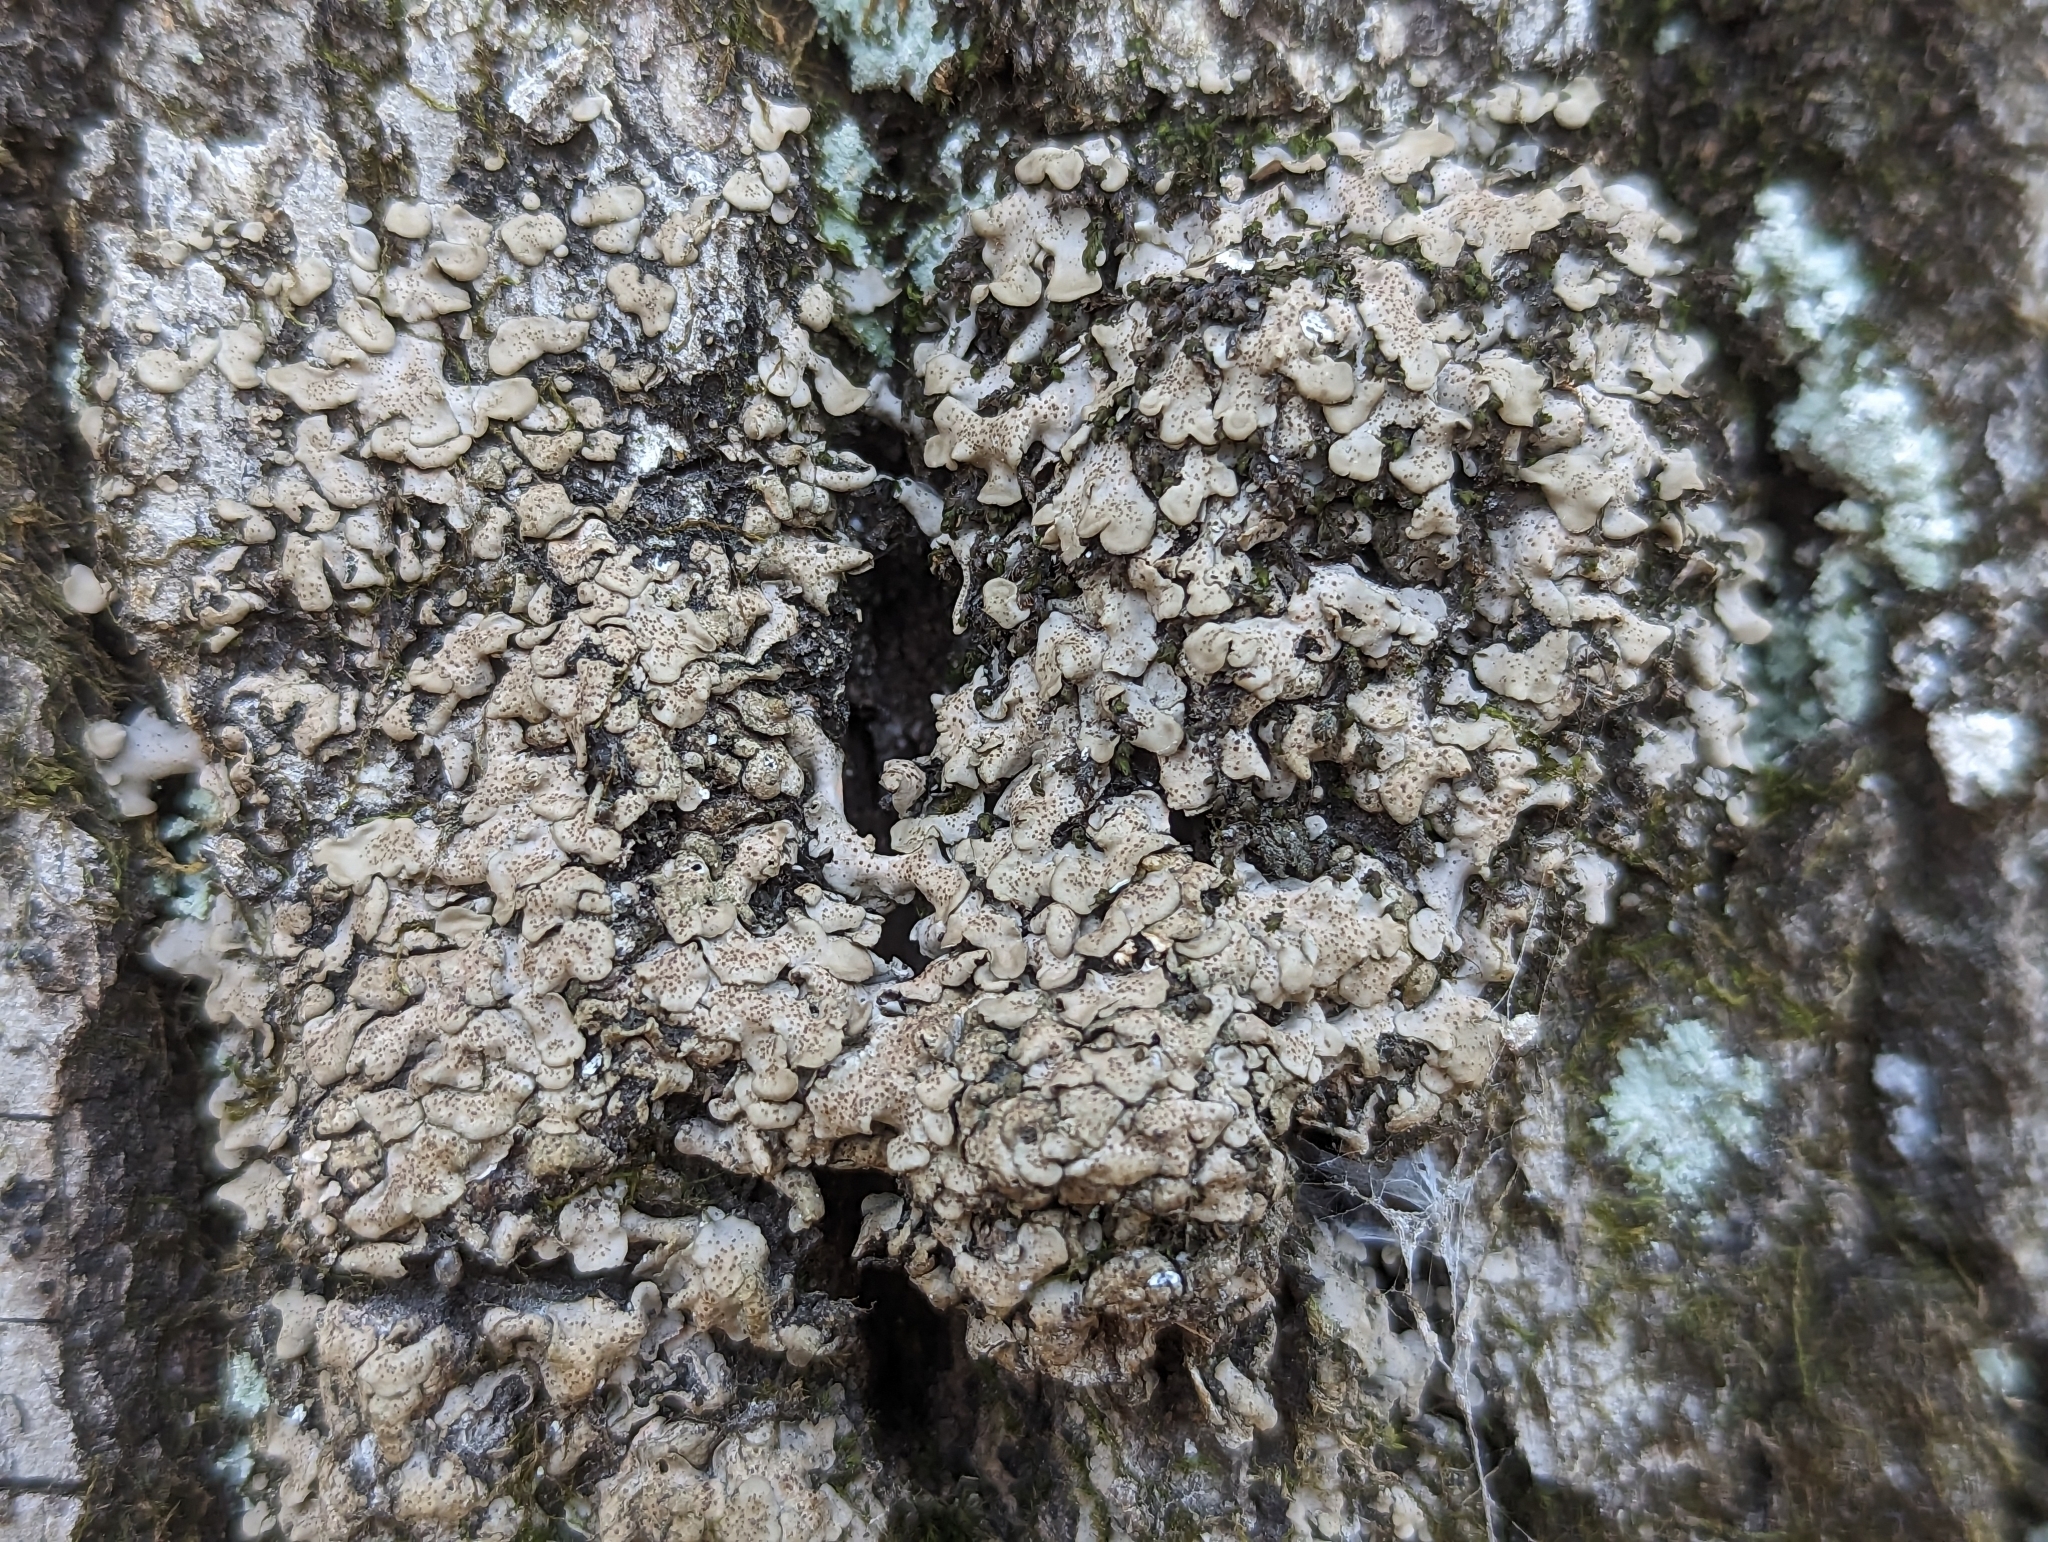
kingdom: Fungi
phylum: Ascomycota
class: Eurotiomycetes
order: Verrucariales
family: Verrucariaceae
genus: Placidium
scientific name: Placidium arboreum
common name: Tree stipplescale
